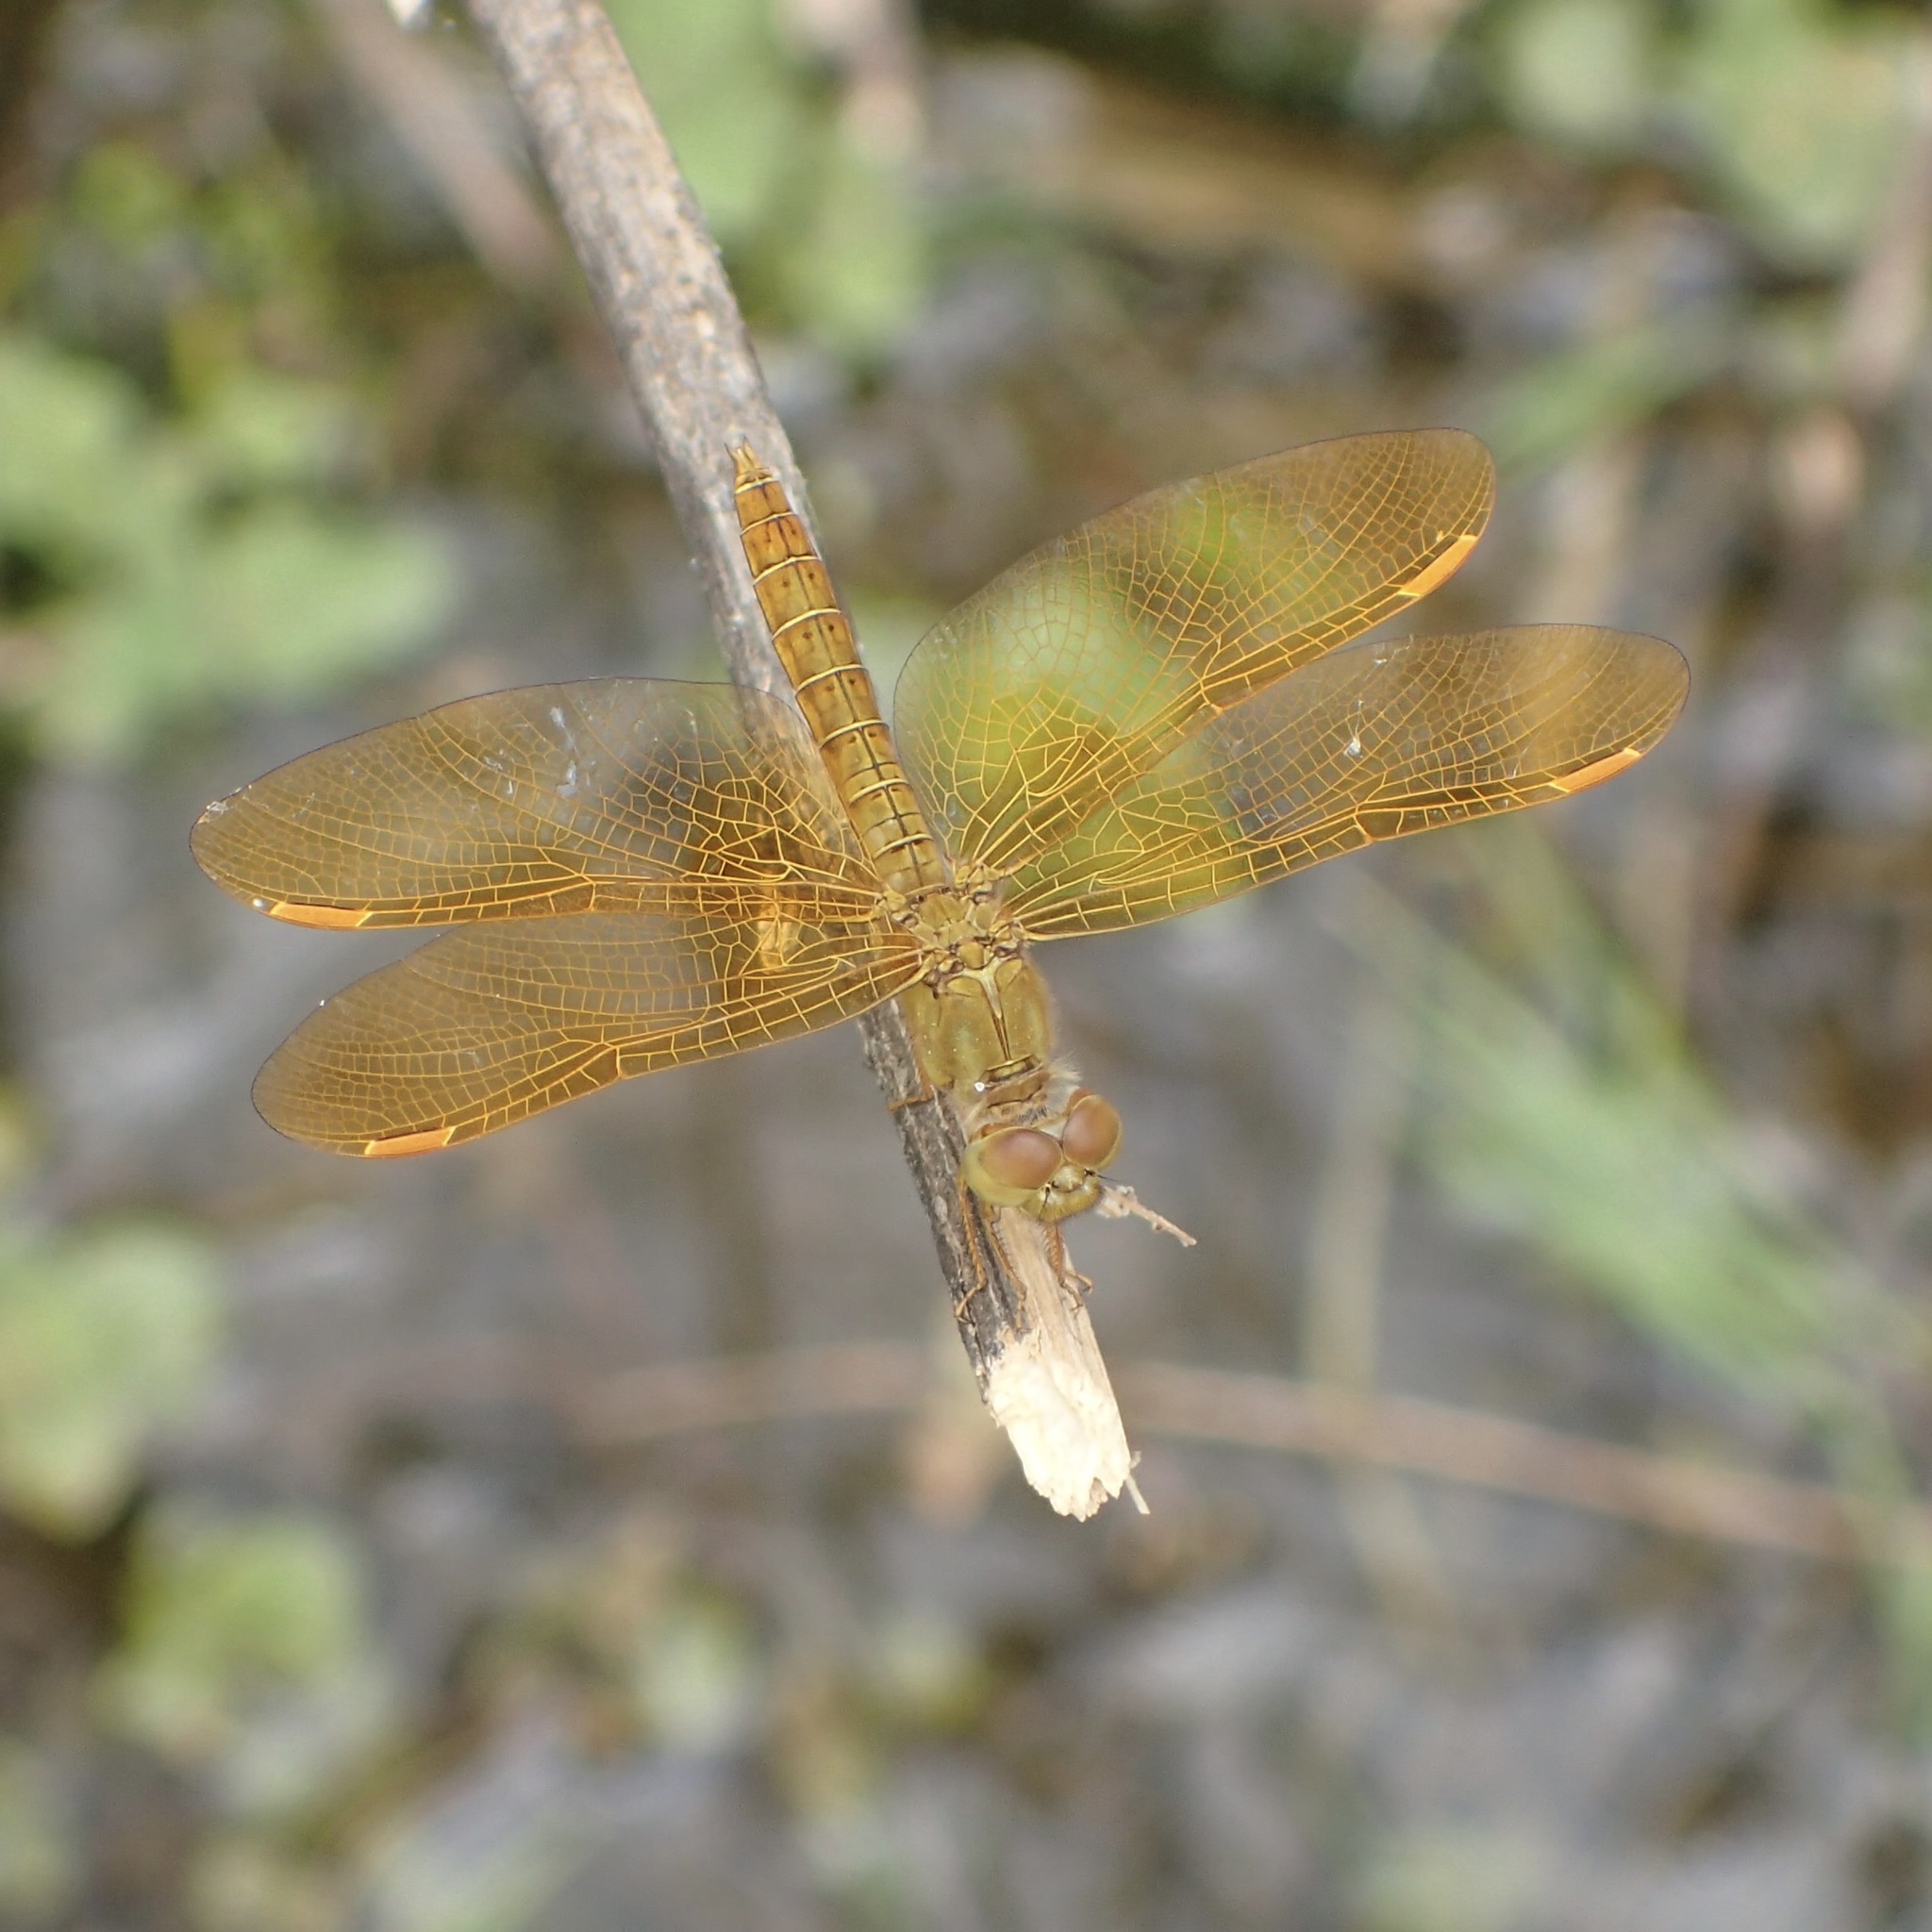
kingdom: Animalia
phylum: Arthropoda
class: Insecta
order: Odonata
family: Libellulidae
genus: Perithemis
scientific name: Perithemis intensa
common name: Mexican amberwing
